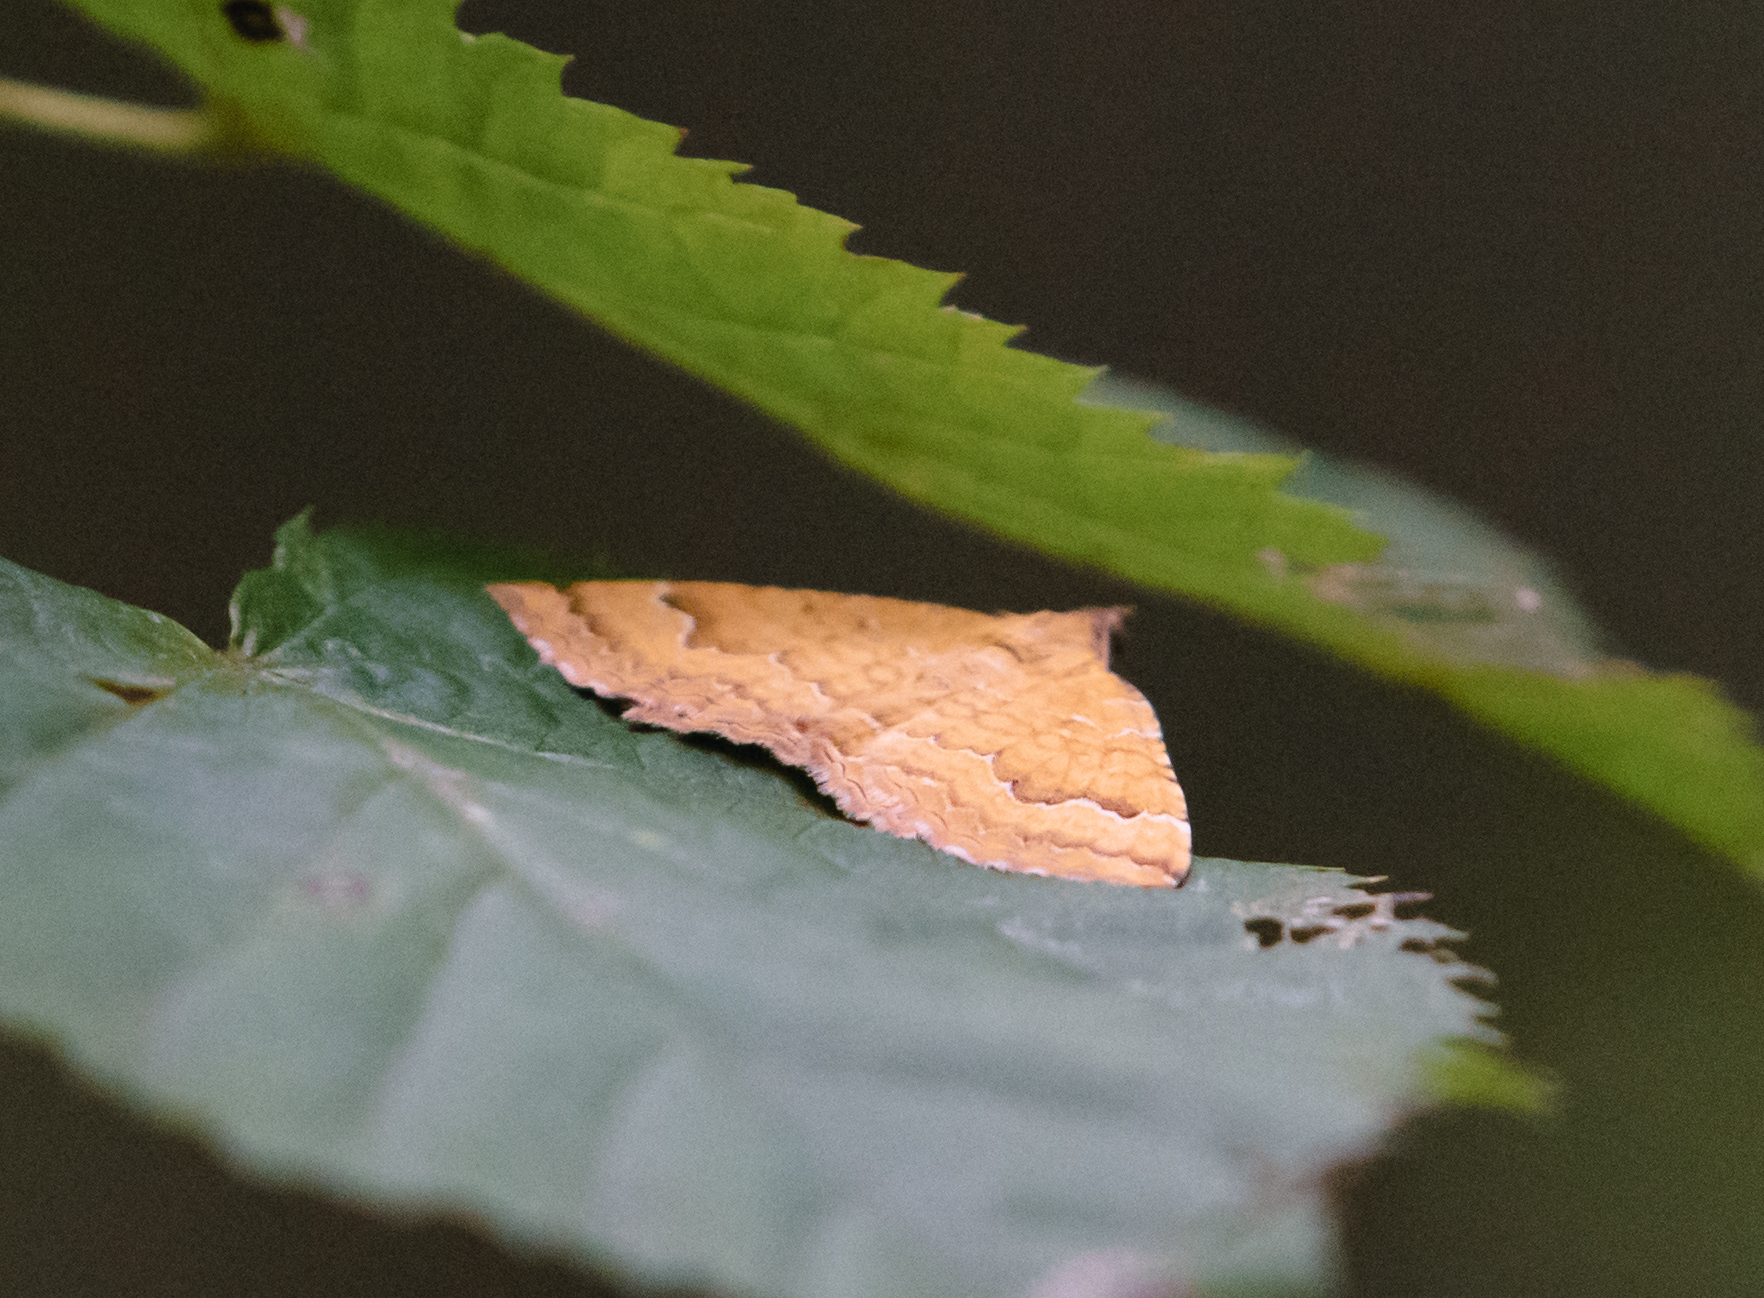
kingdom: Animalia
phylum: Arthropoda
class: Insecta
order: Lepidoptera
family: Geometridae
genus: Camptogramma
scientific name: Camptogramma bilineata
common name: Yellow shell
